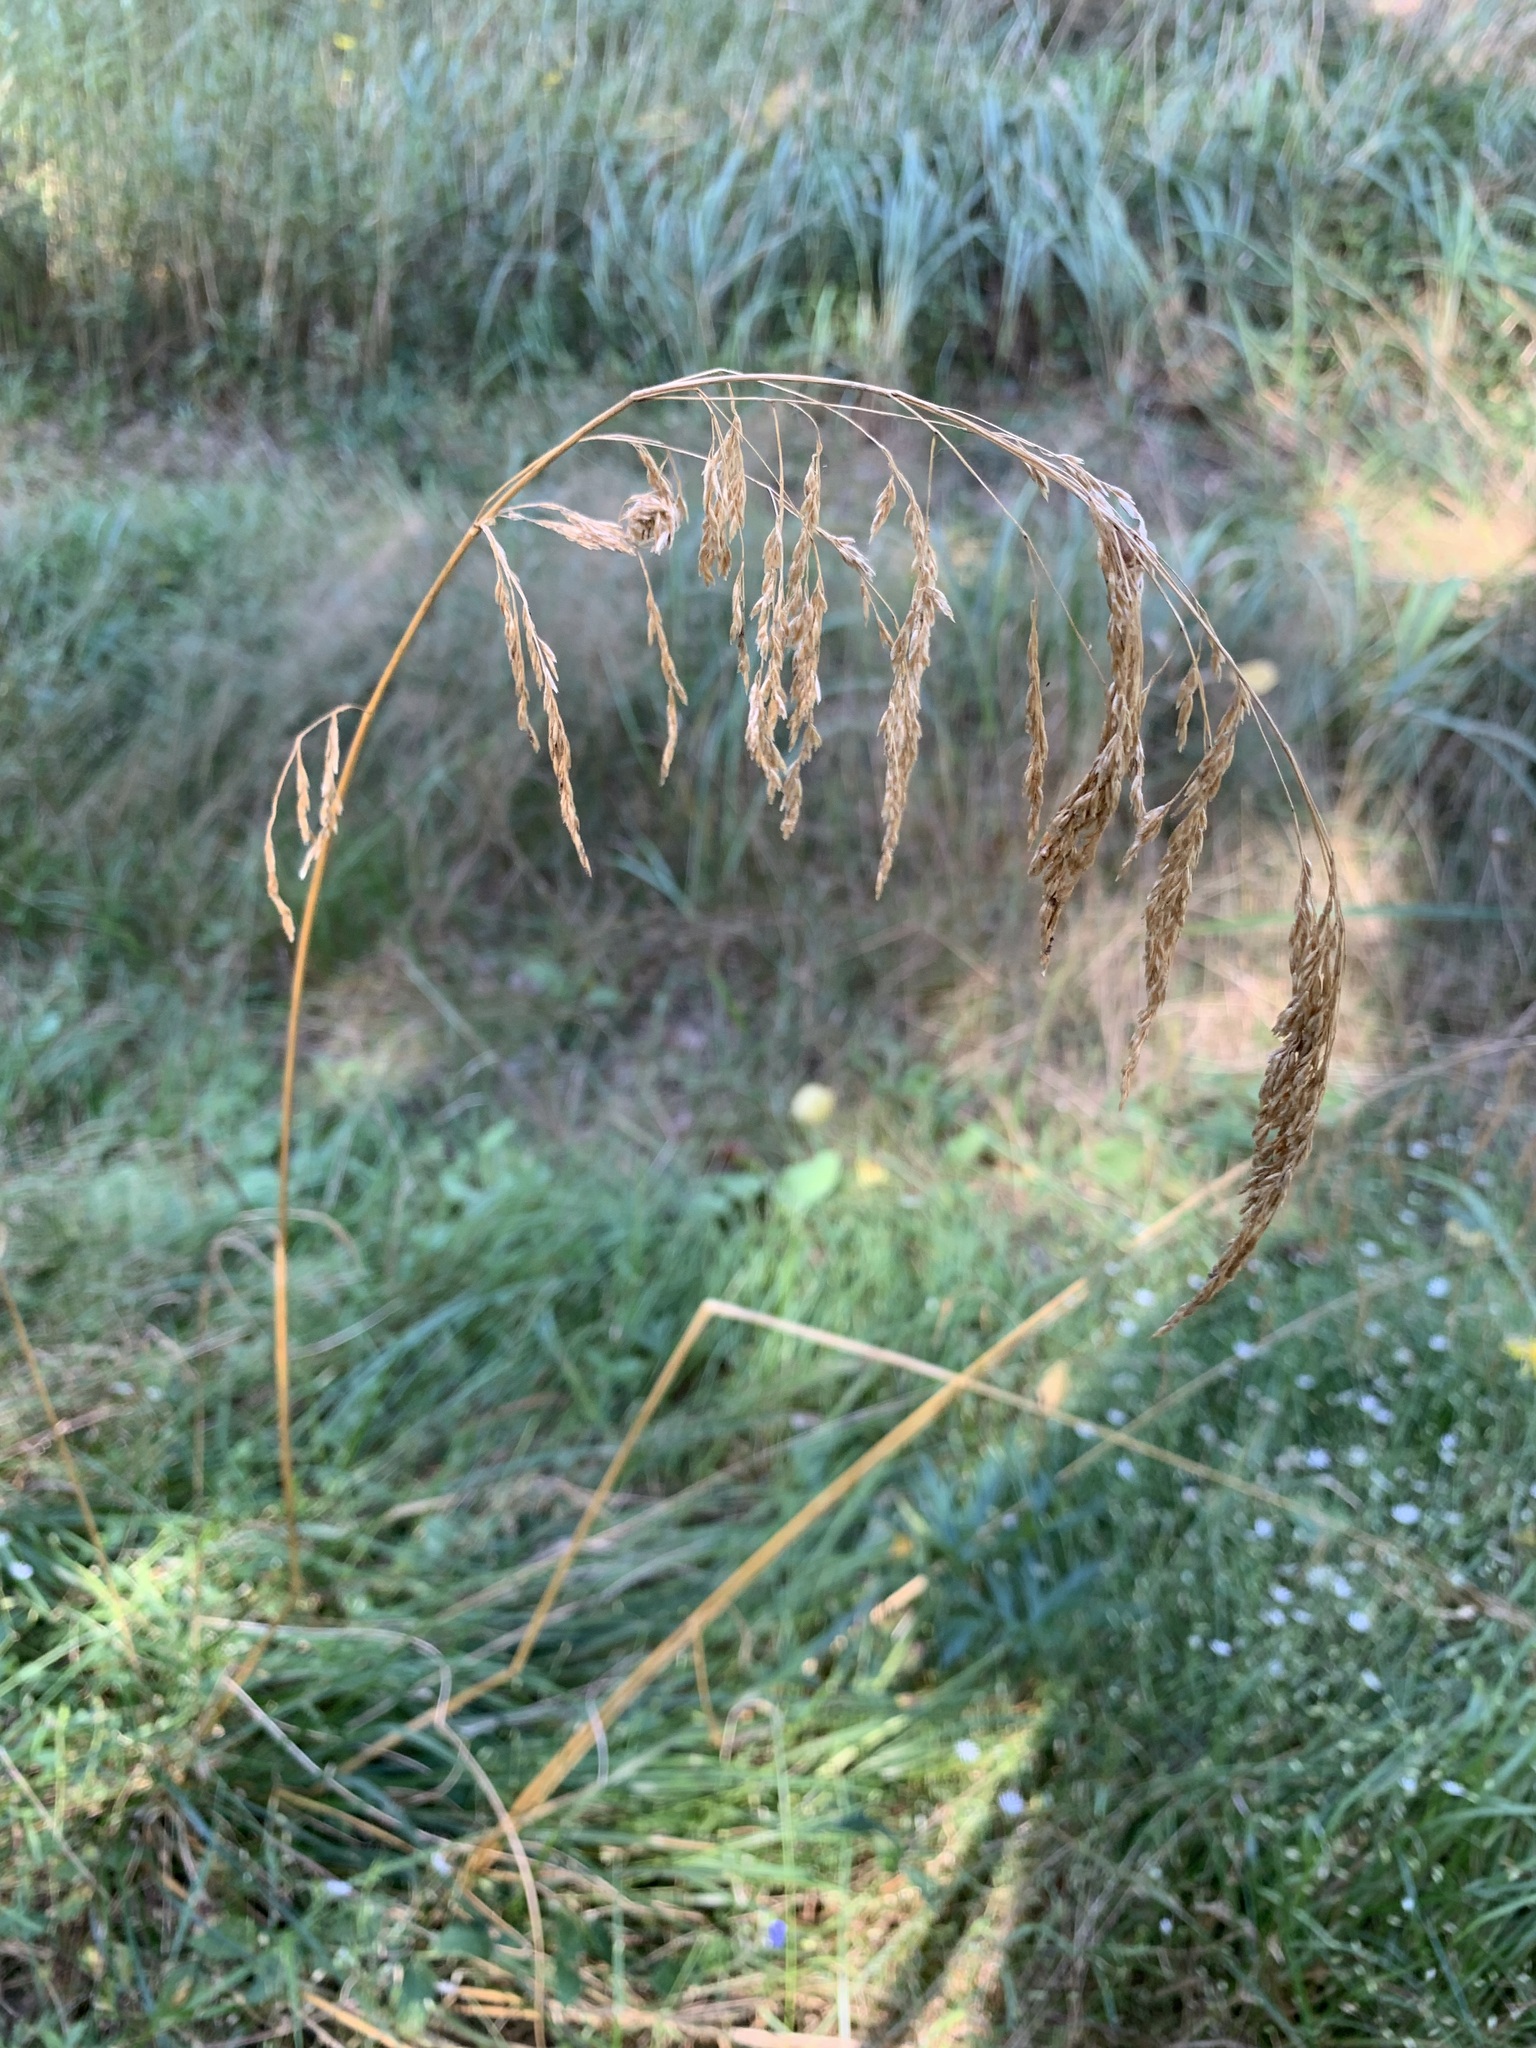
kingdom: Plantae
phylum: Tracheophyta
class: Liliopsida
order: Poales
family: Poaceae
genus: Deschampsia
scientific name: Deschampsia cespitosa
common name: Tufted hair-grass
